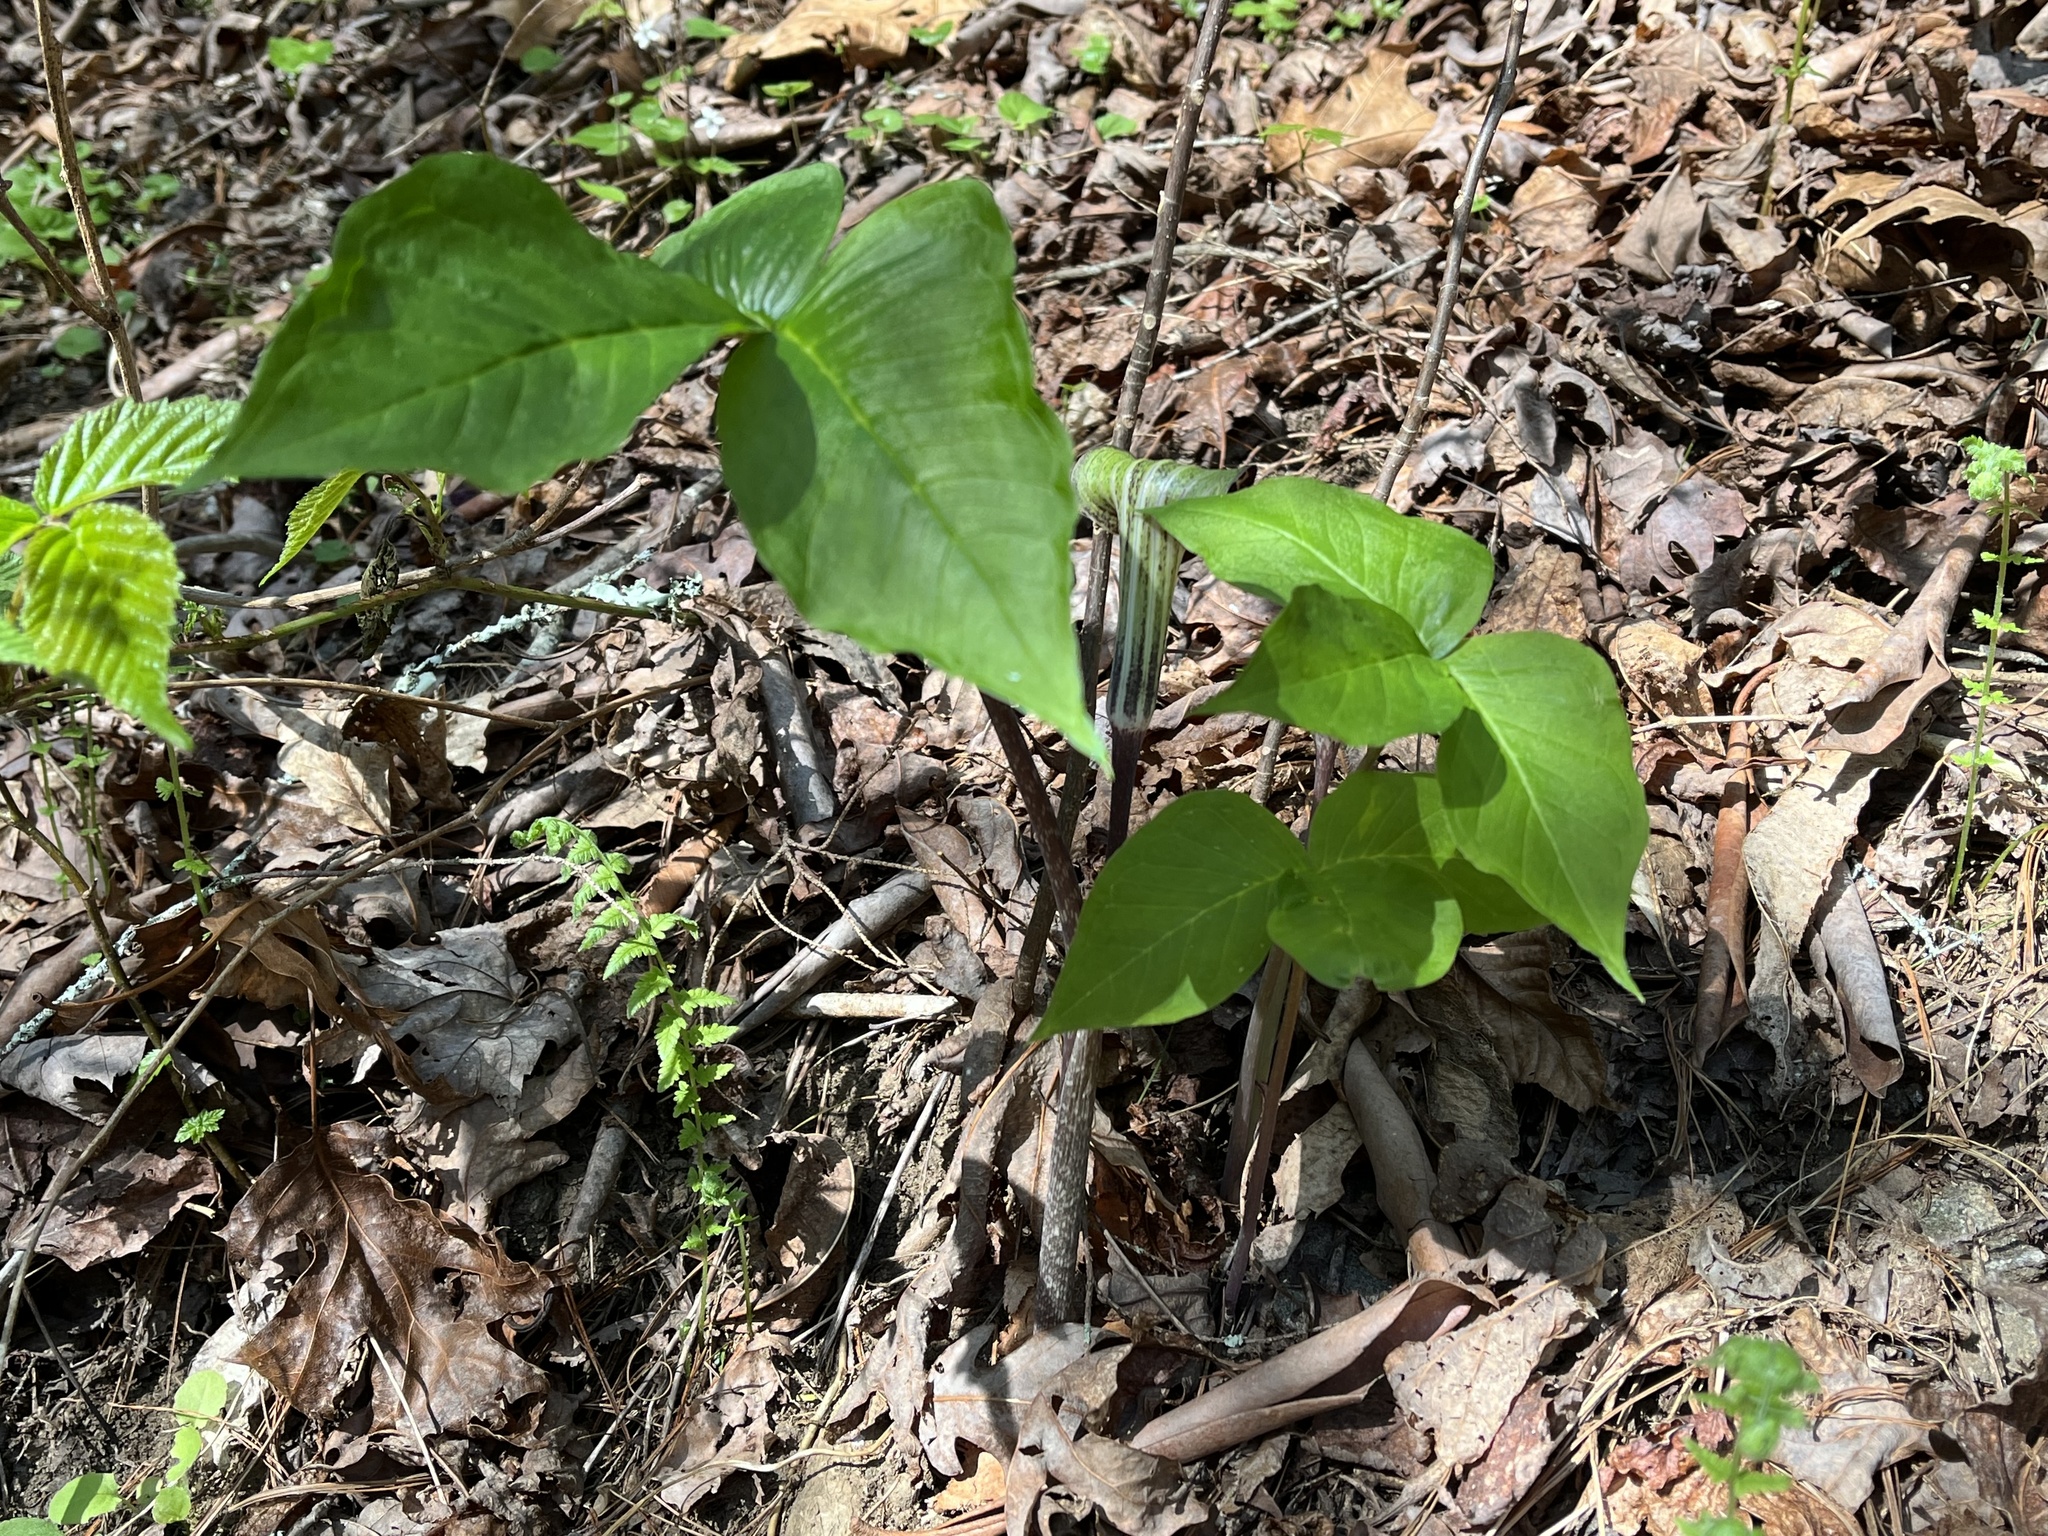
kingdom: Plantae
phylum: Tracheophyta
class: Liliopsida
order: Alismatales
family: Araceae
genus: Arisaema
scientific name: Arisaema triphyllum
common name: Jack-in-the-pulpit
